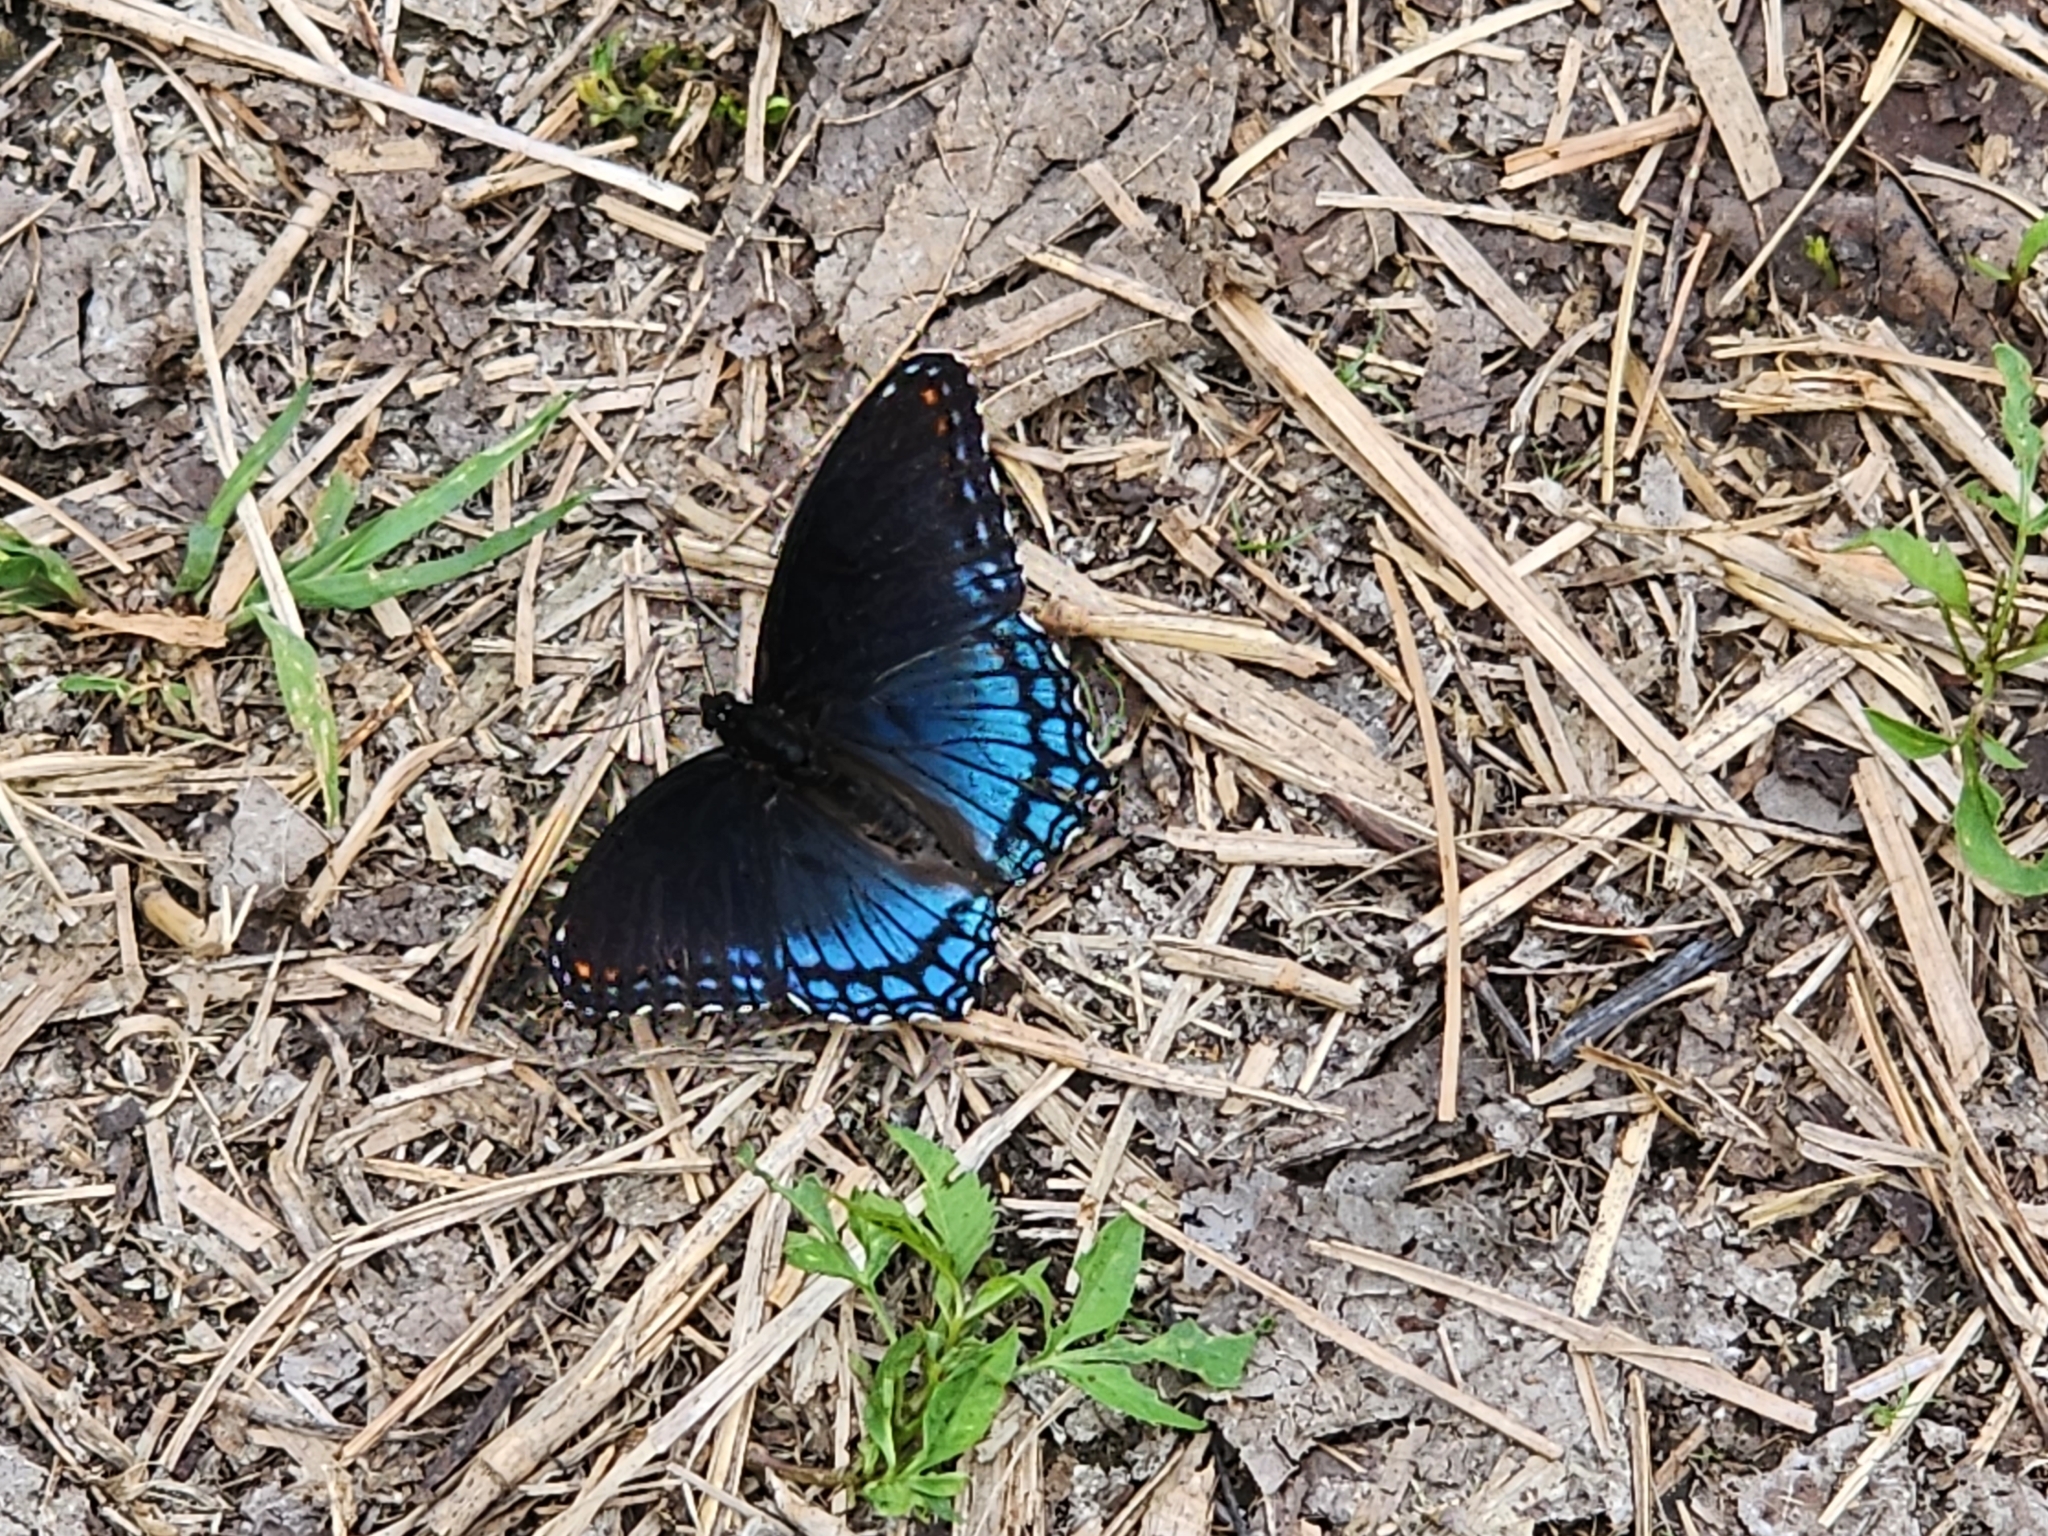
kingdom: Animalia
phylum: Arthropoda
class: Insecta
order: Lepidoptera
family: Nymphalidae
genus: Limenitis
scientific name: Limenitis astyanax
